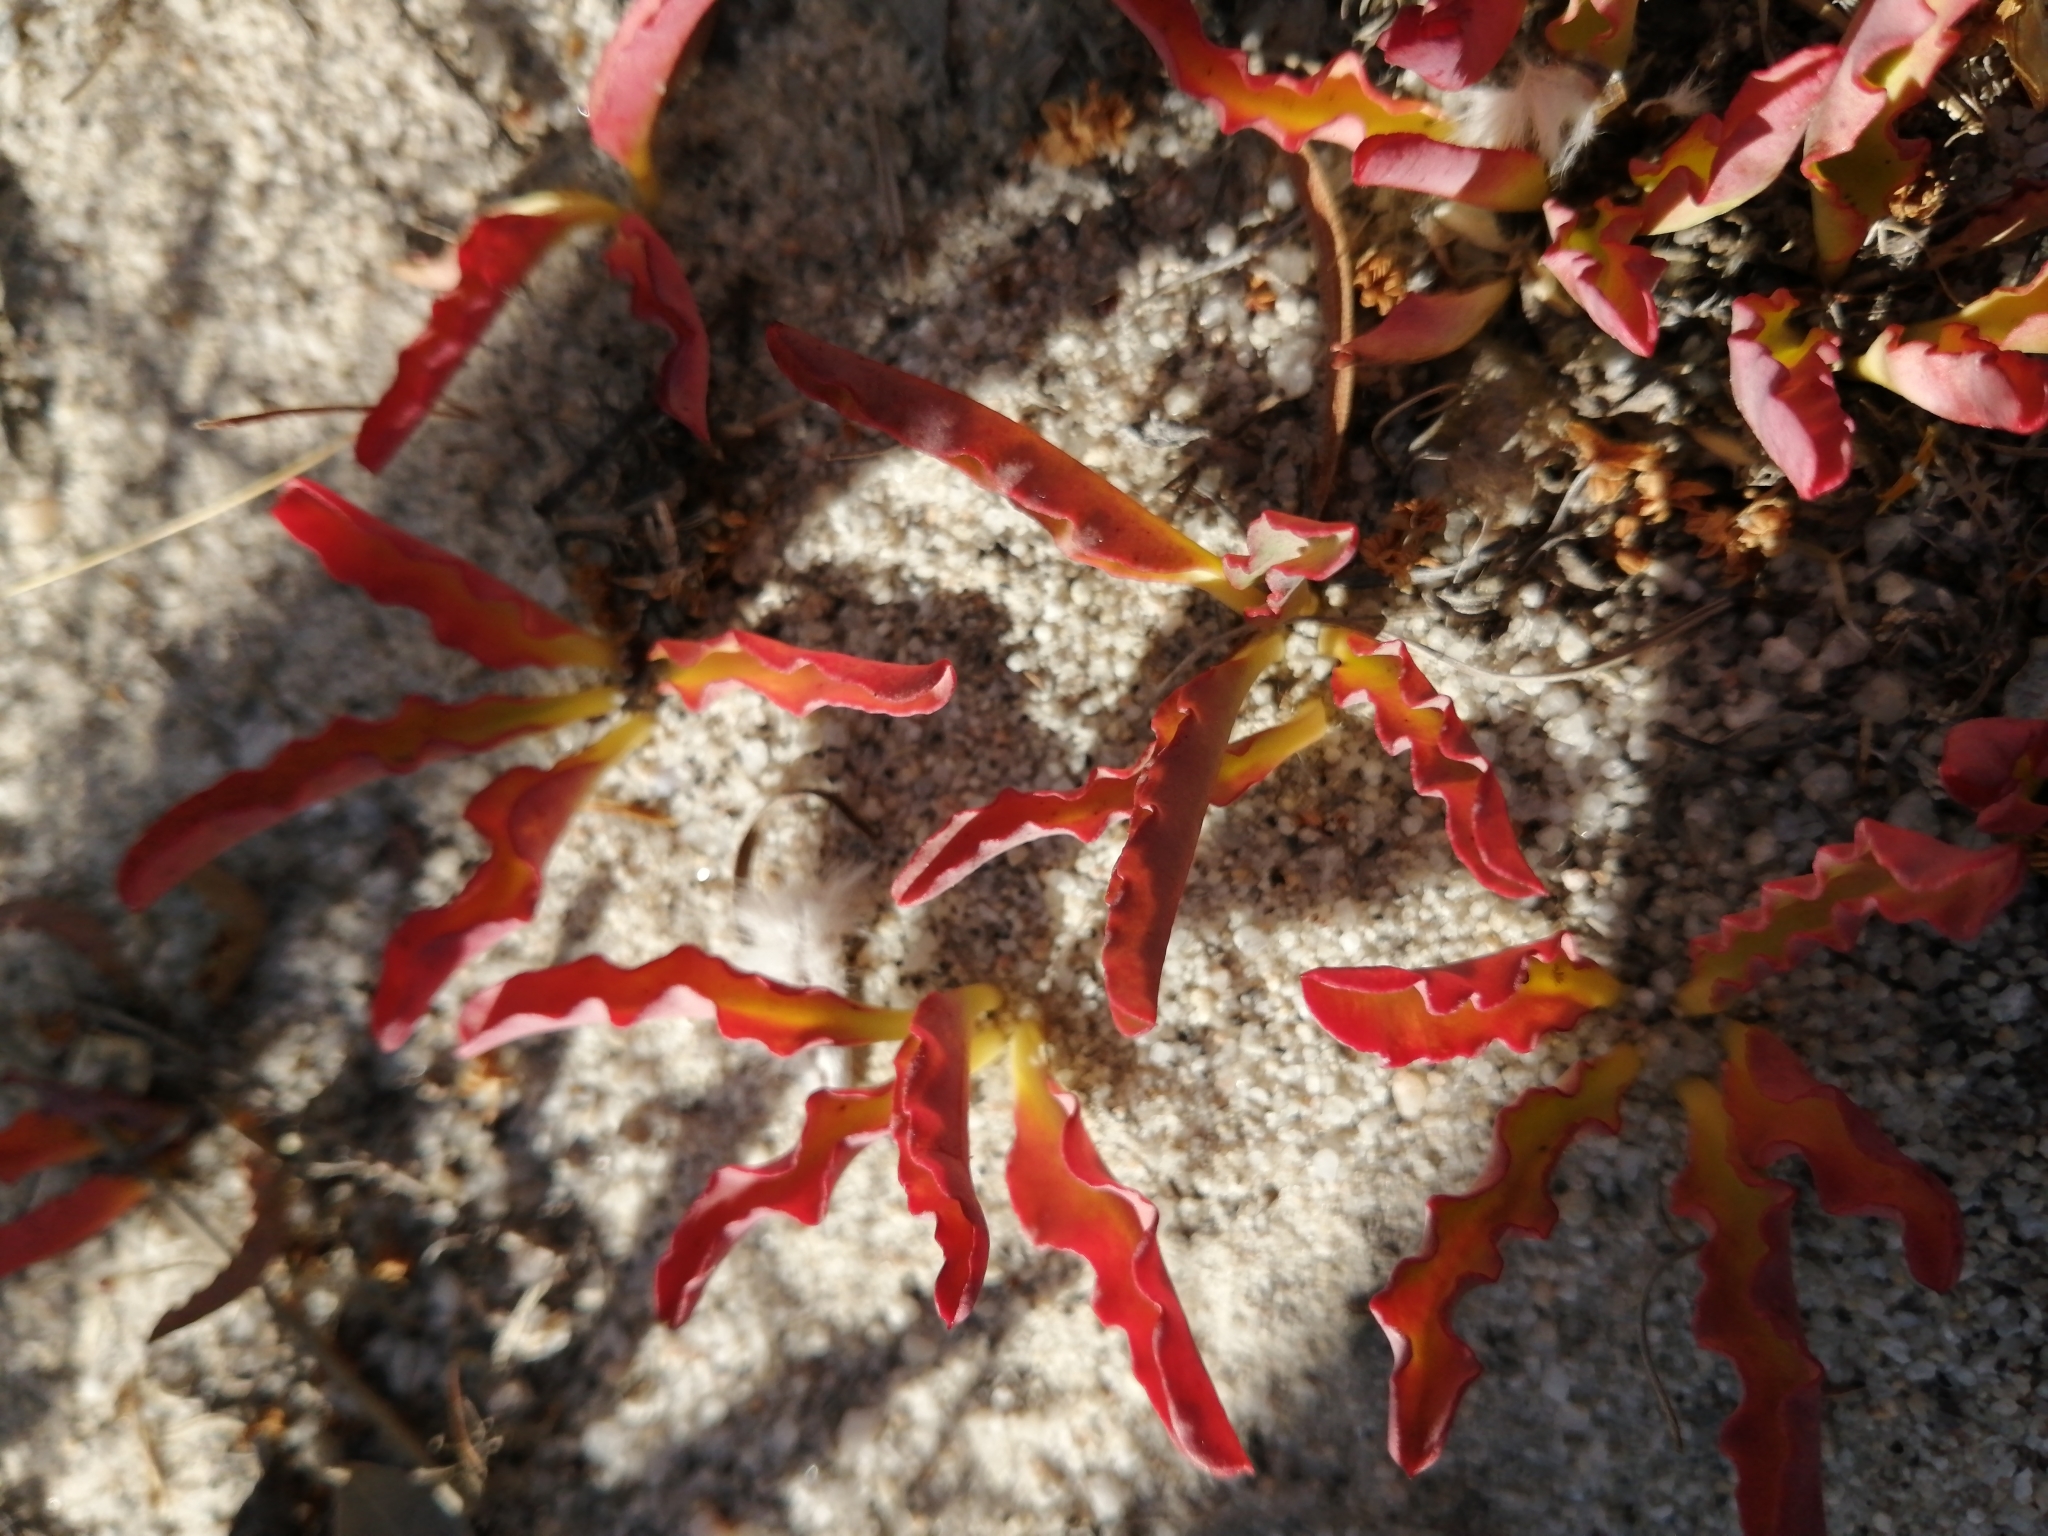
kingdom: Plantae
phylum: Tracheophyta
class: Magnoliopsida
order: Malpighiales
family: Euphorbiaceae
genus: Euphorbia
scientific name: Euphorbia tuberosa
